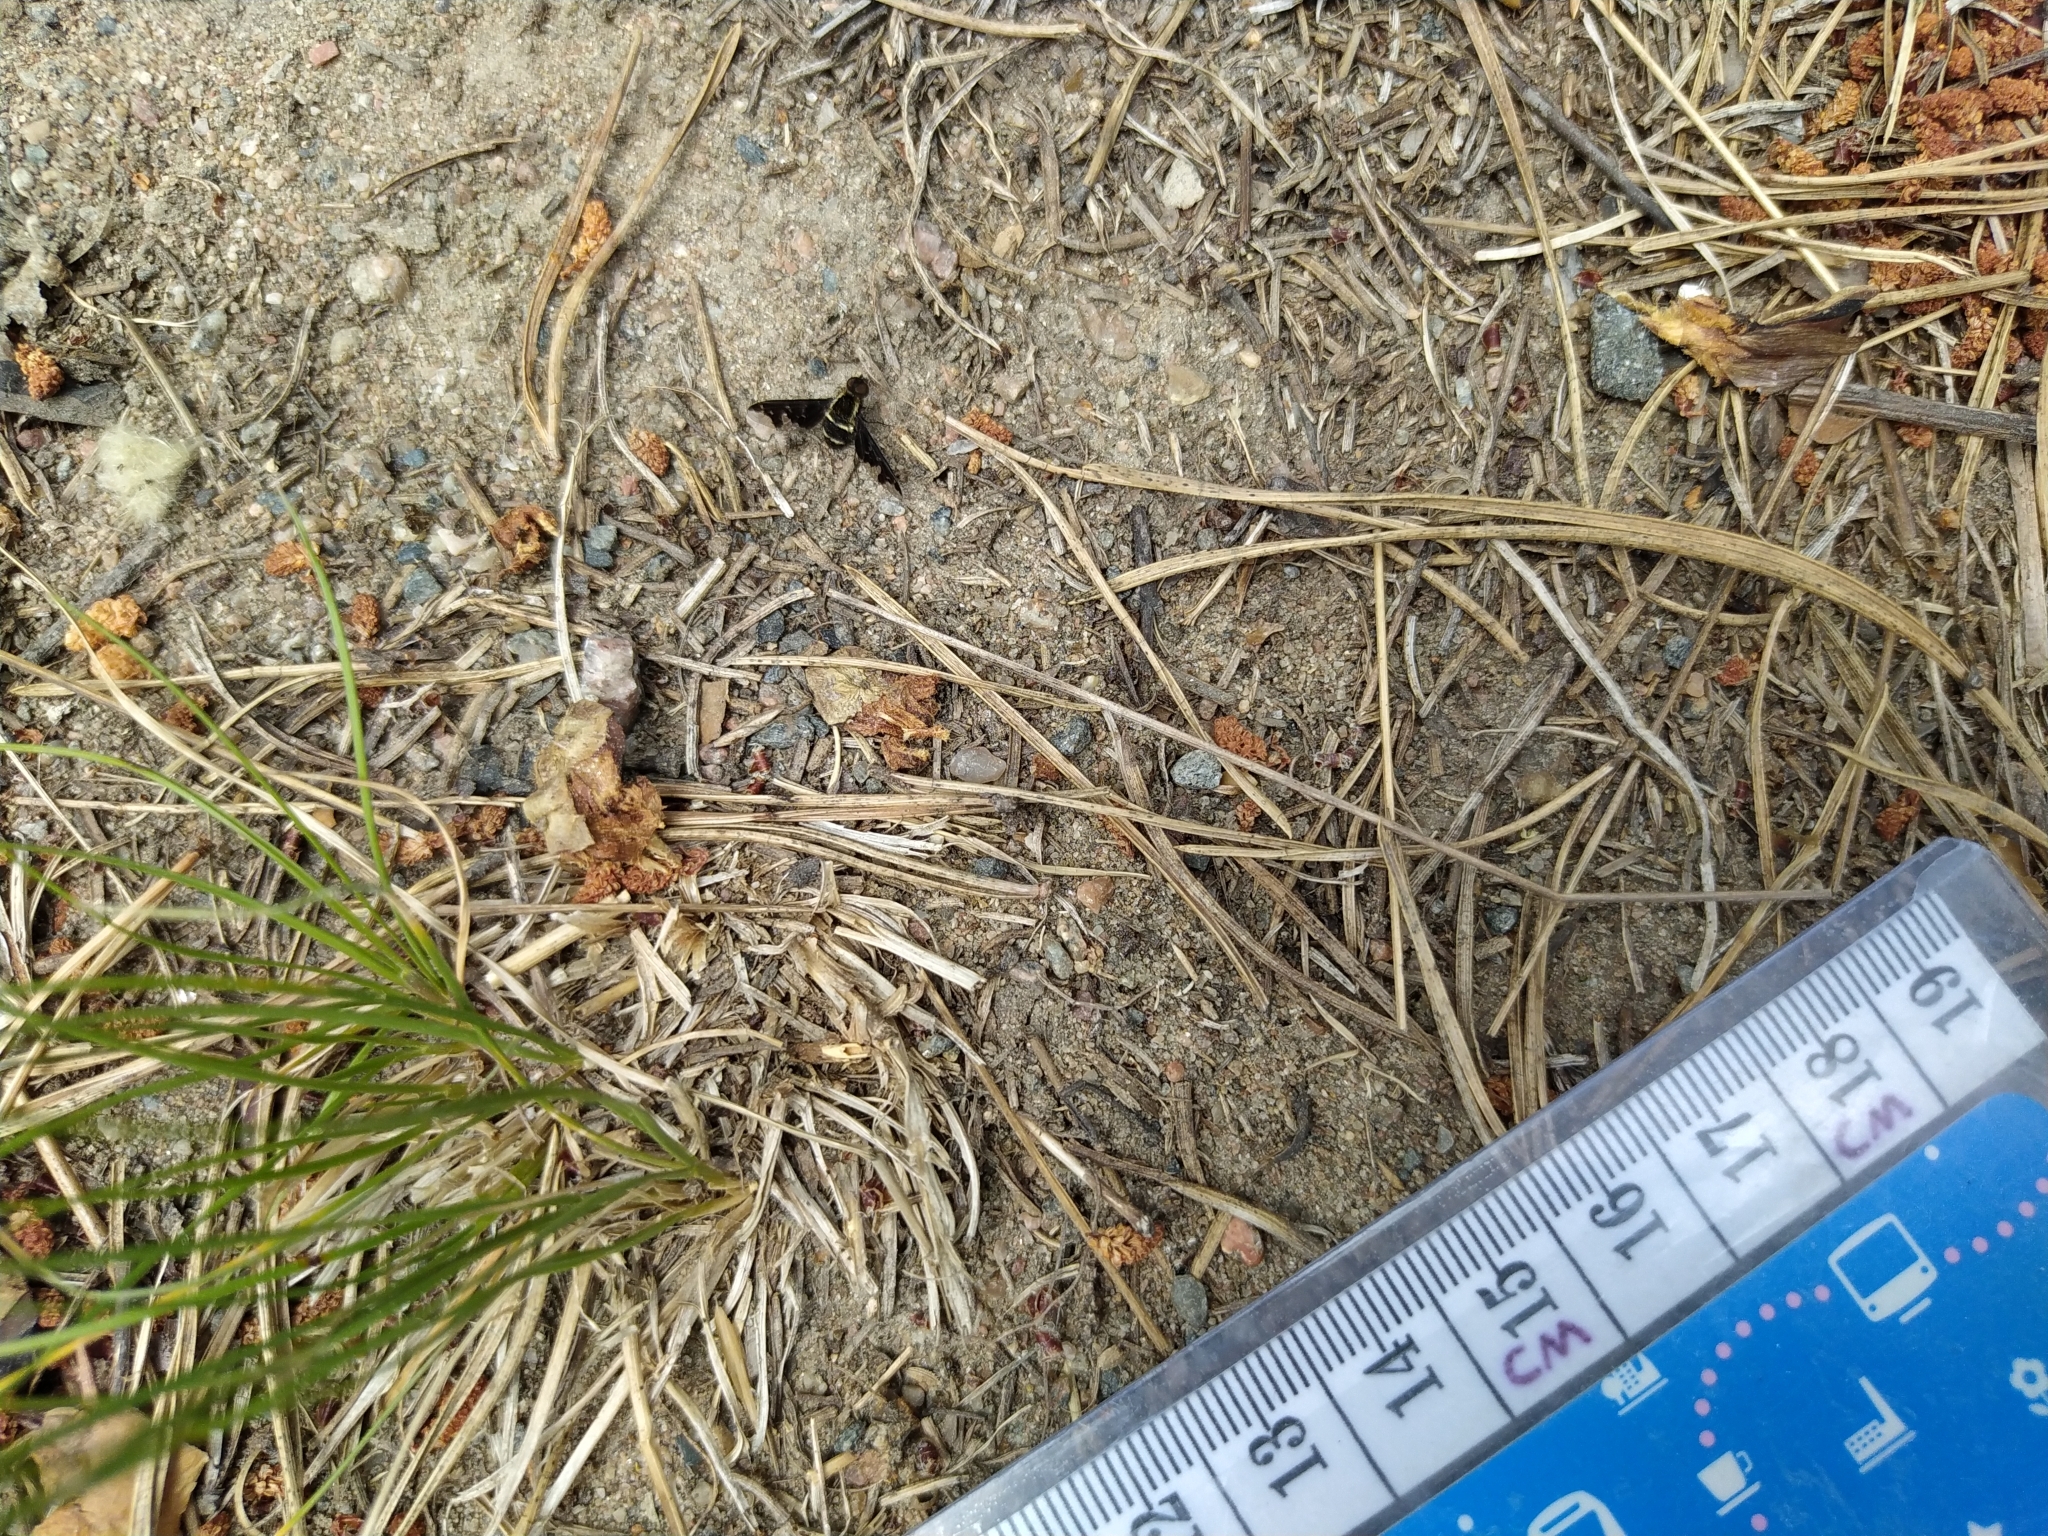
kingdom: Animalia
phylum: Arthropoda
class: Insecta
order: Diptera
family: Bombyliidae
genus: Hemipenthes
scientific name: Hemipenthes maura
